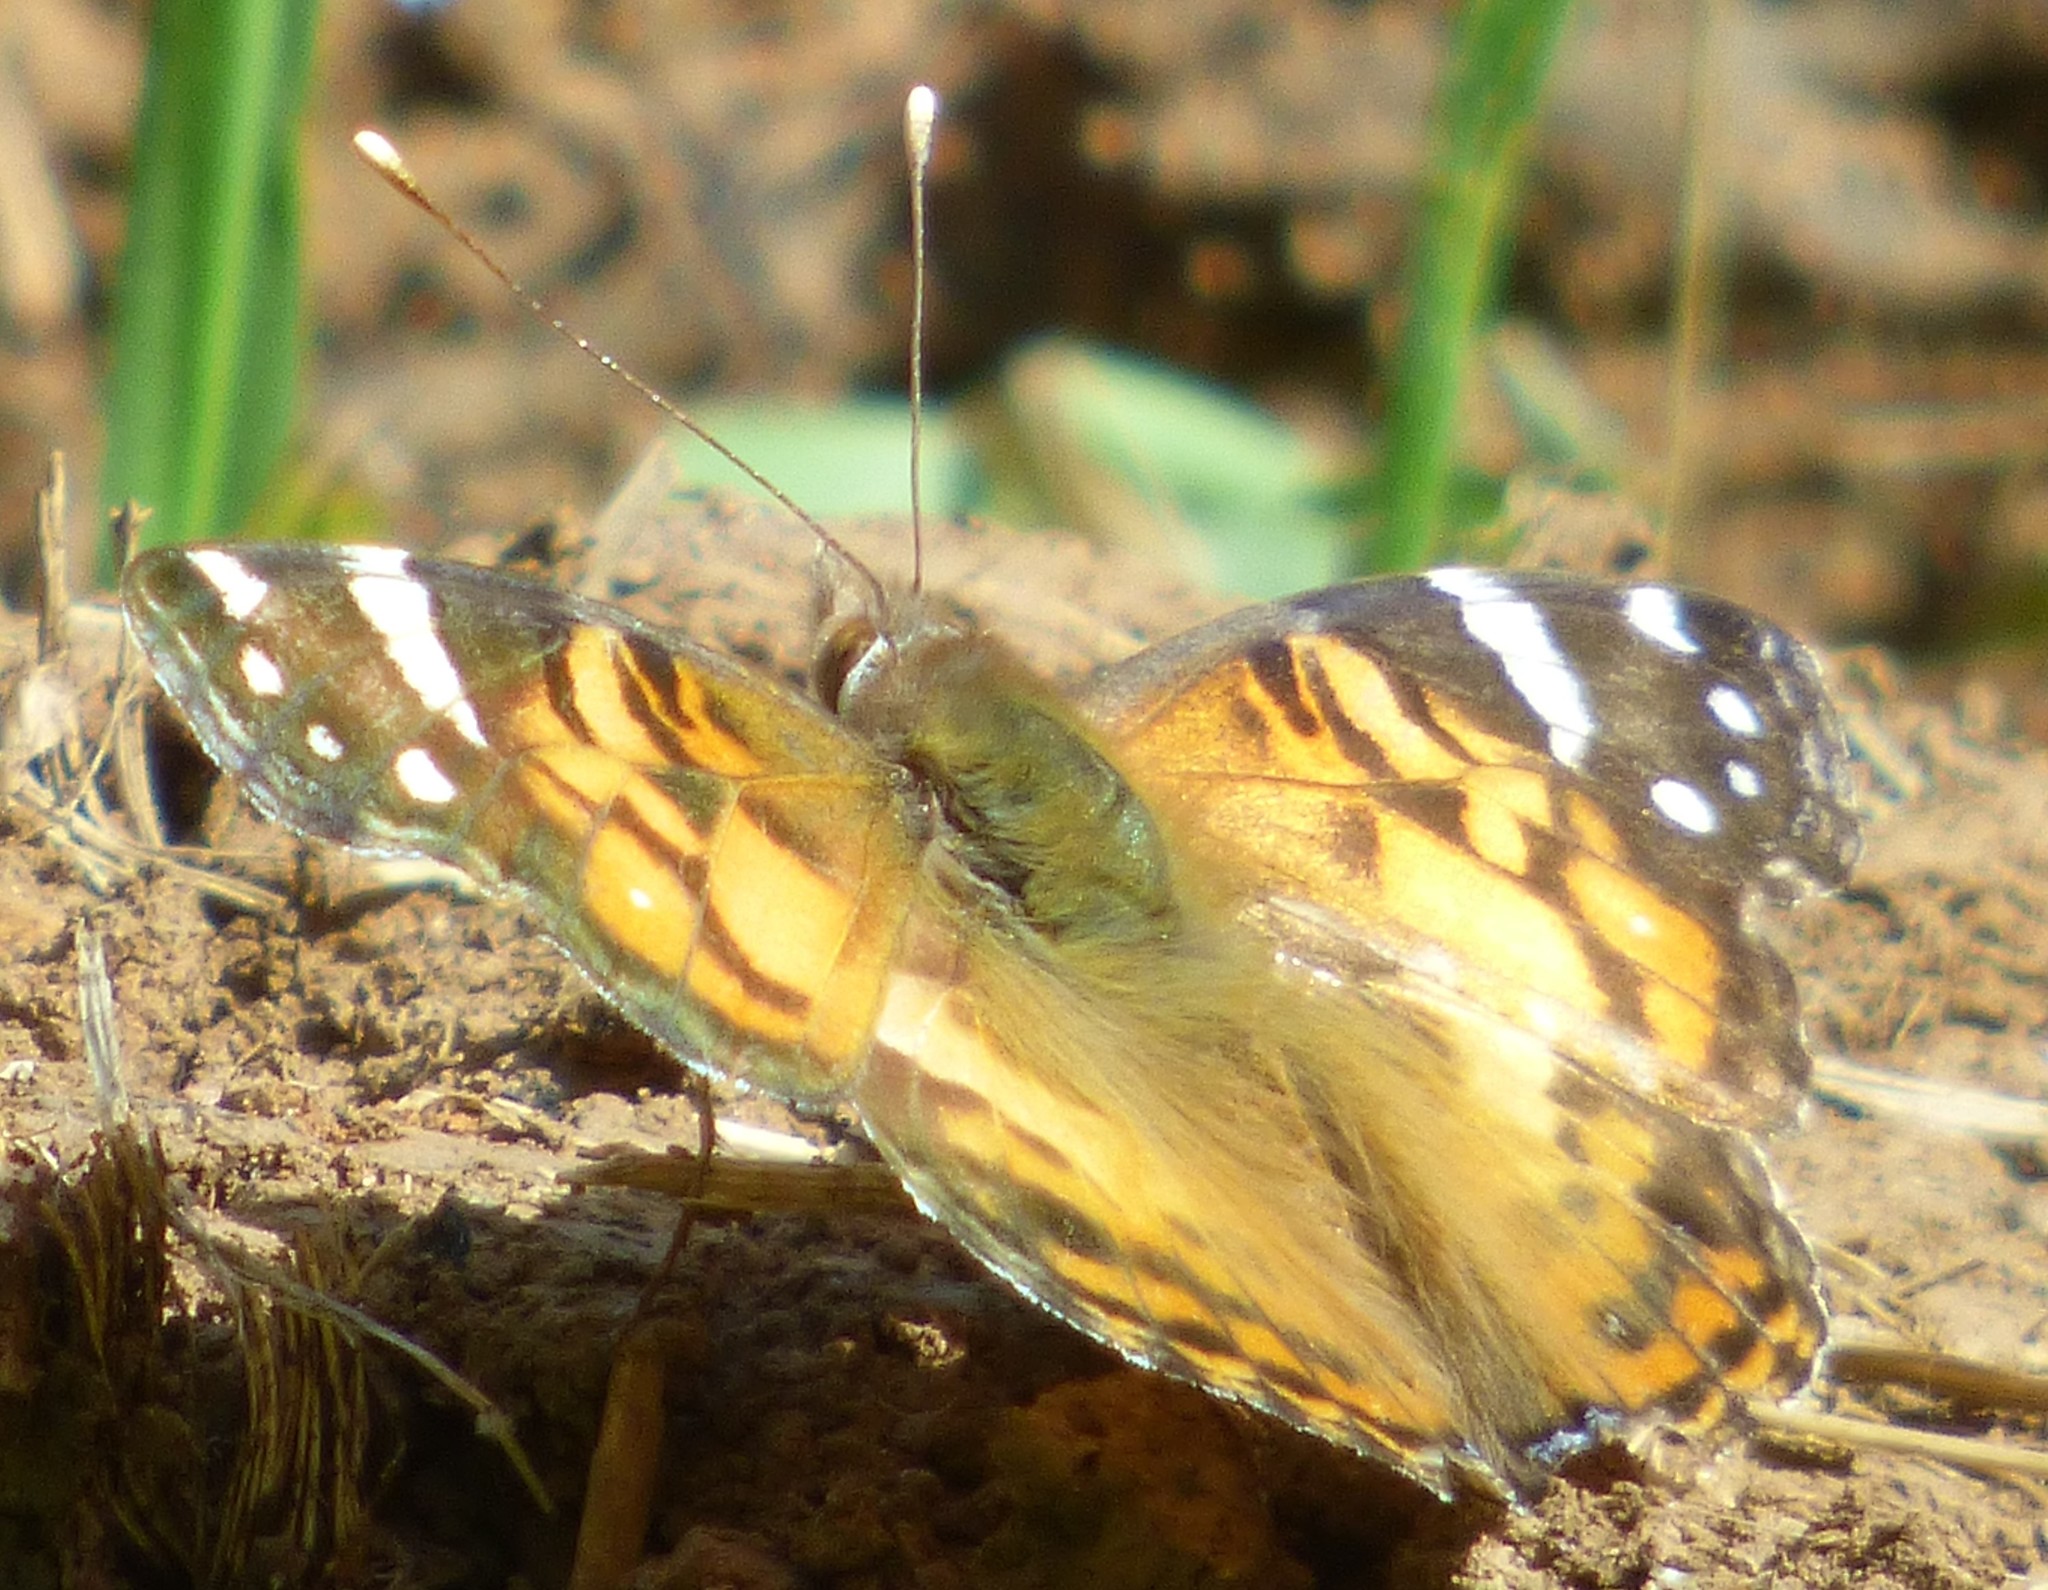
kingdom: Animalia
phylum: Arthropoda
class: Insecta
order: Lepidoptera
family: Nymphalidae
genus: Vanessa
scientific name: Vanessa virginiensis
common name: American lady
